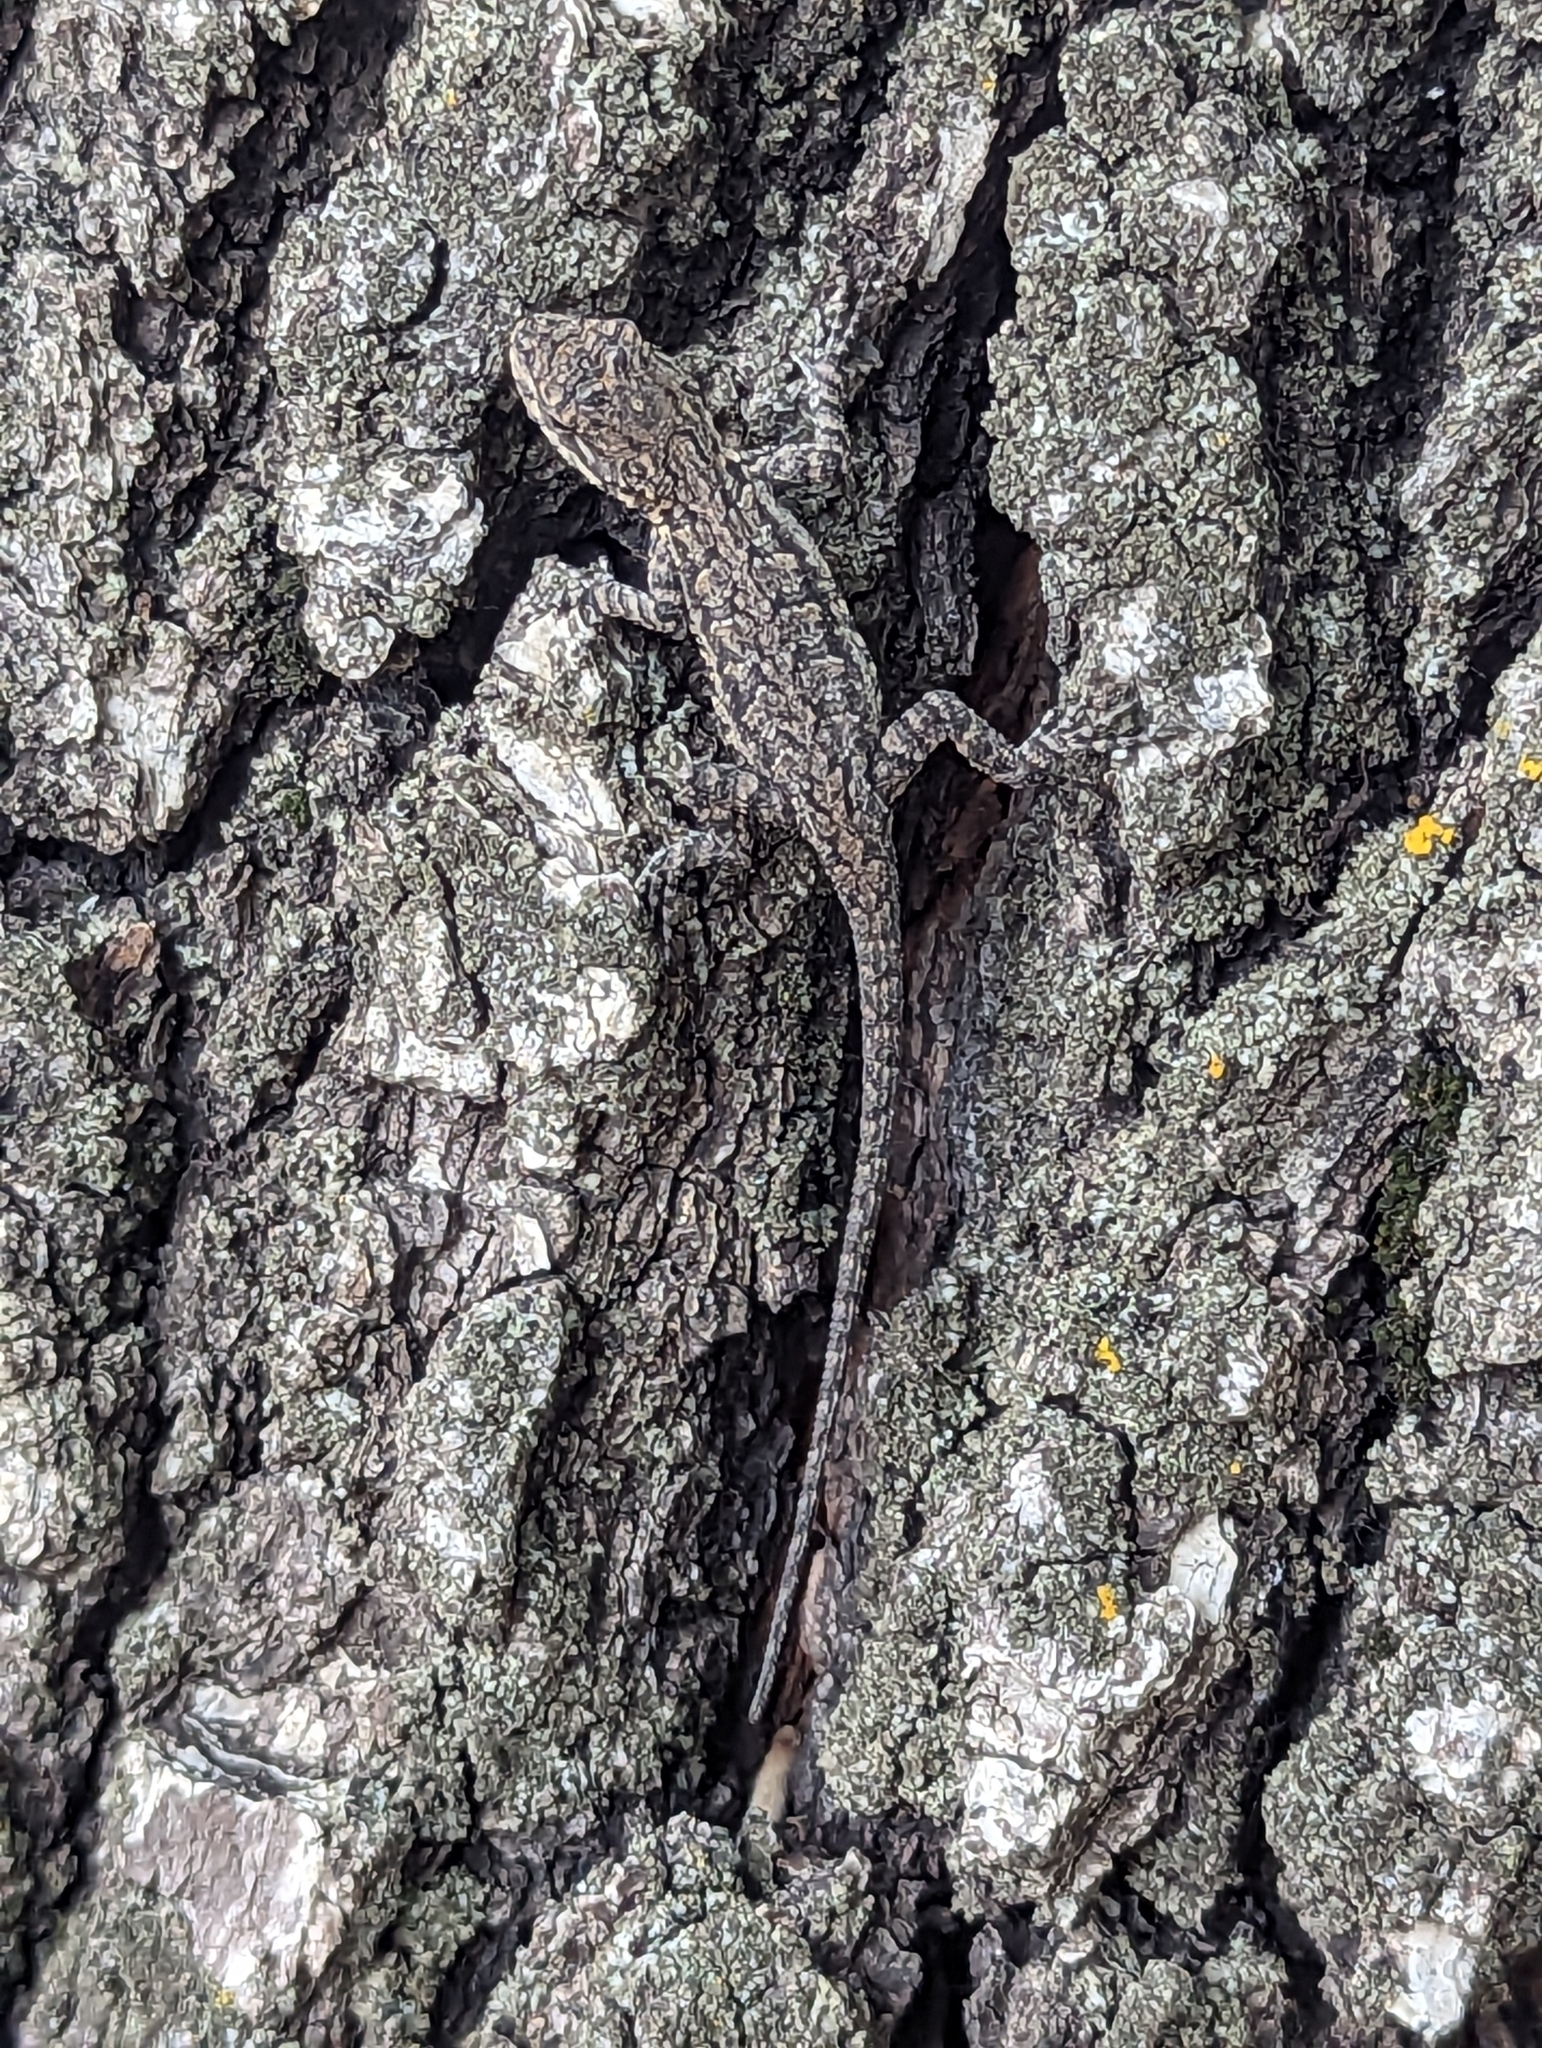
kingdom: Animalia
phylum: Chordata
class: Squamata
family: Phrynosomatidae
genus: Urosaurus
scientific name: Urosaurus ornatus
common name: Ornate tree lizard
